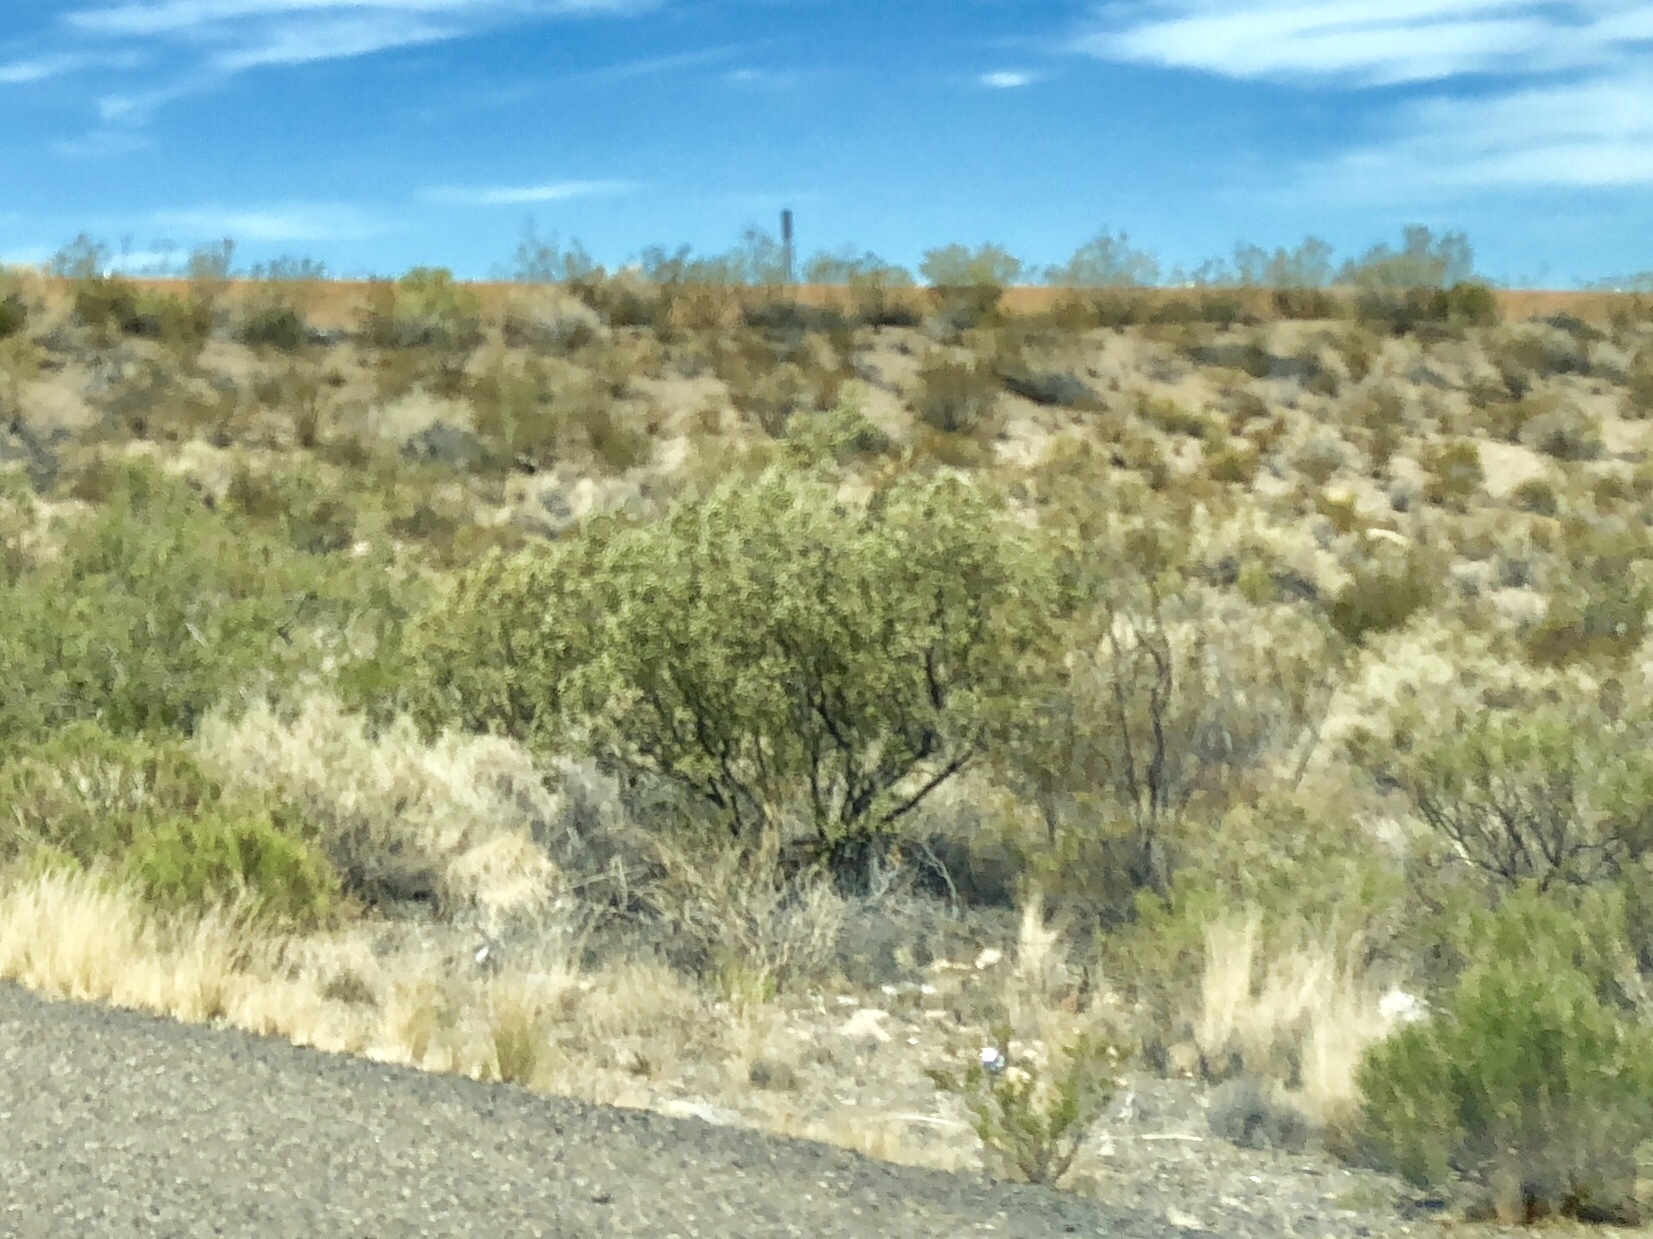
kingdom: Plantae
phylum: Tracheophyta
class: Magnoliopsida
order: Zygophyllales
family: Zygophyllaceae
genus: Larrea
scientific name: Larrea tridentata
